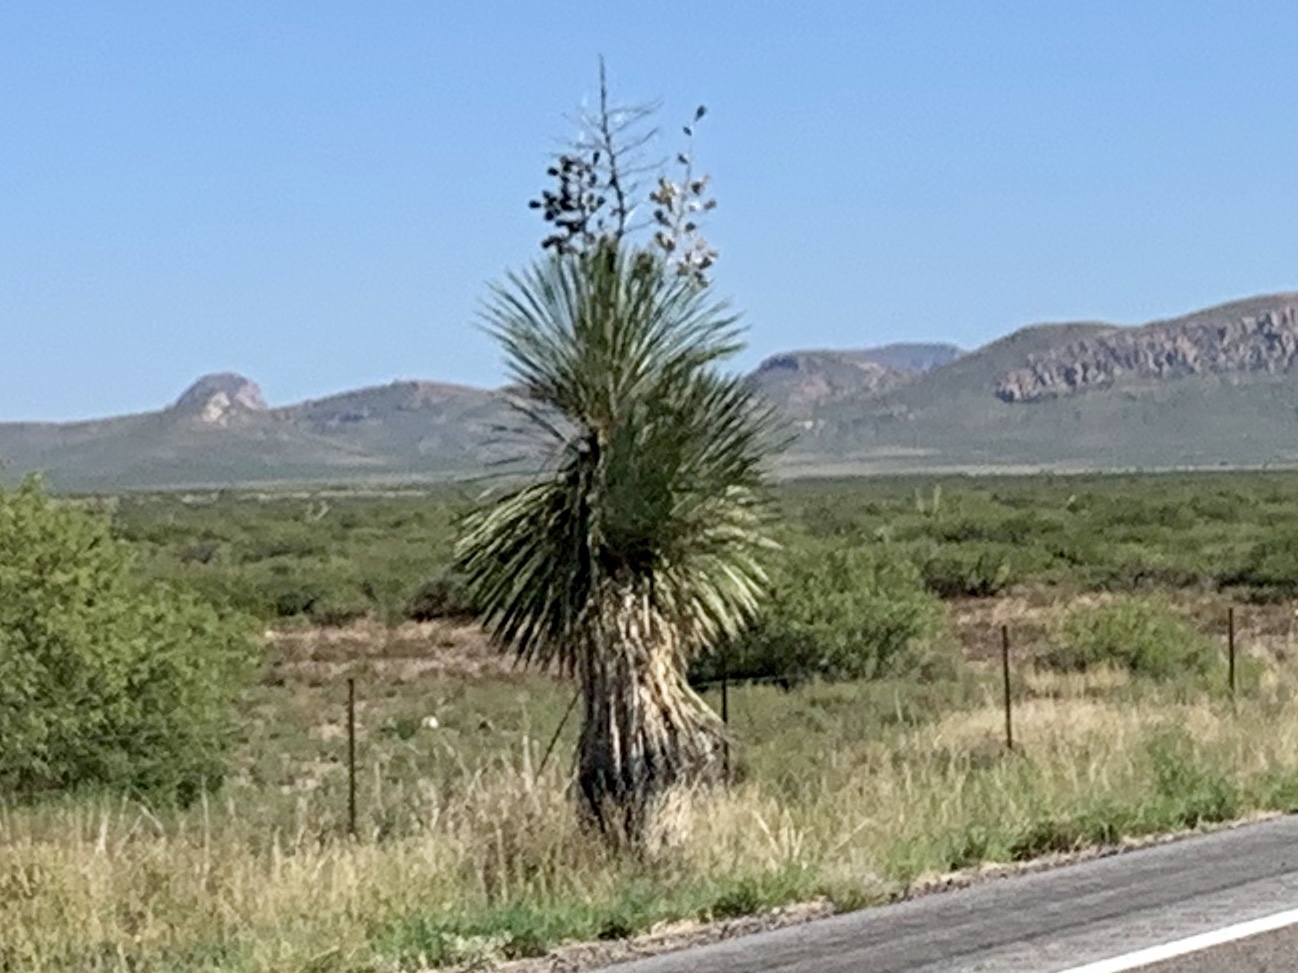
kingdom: Plantae
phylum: Tracheophyta
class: Liliopsida
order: Asparagales
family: Asparagaceae
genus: Yucca
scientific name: Yucca elata
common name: Palmella
